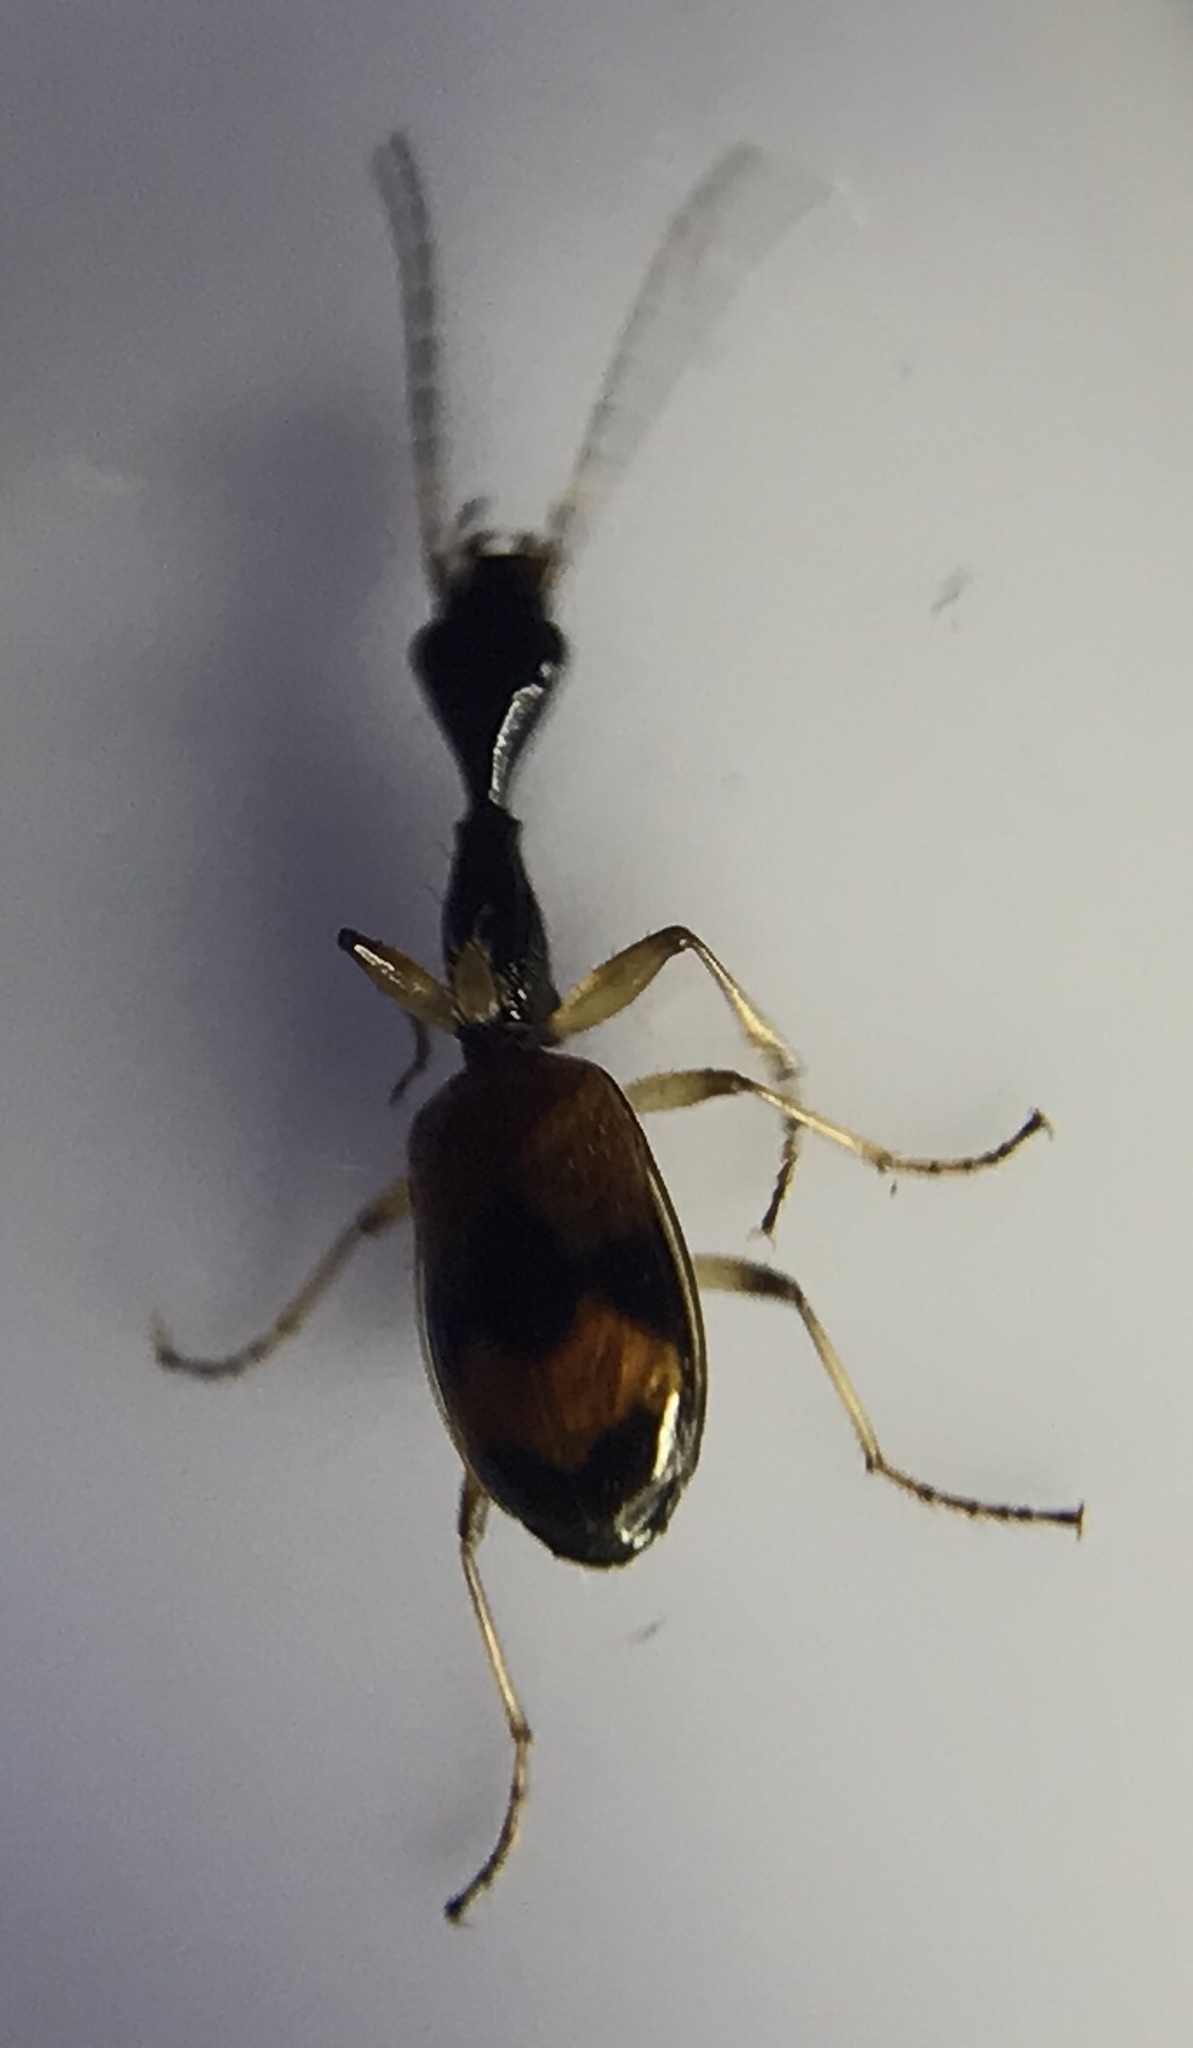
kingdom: Animalia
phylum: Arthropoda
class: Insecta
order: Coleoptera
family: Carabidae
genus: Colliuris
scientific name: Colliuris pensylvanica
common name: Long-necked ground beetle
